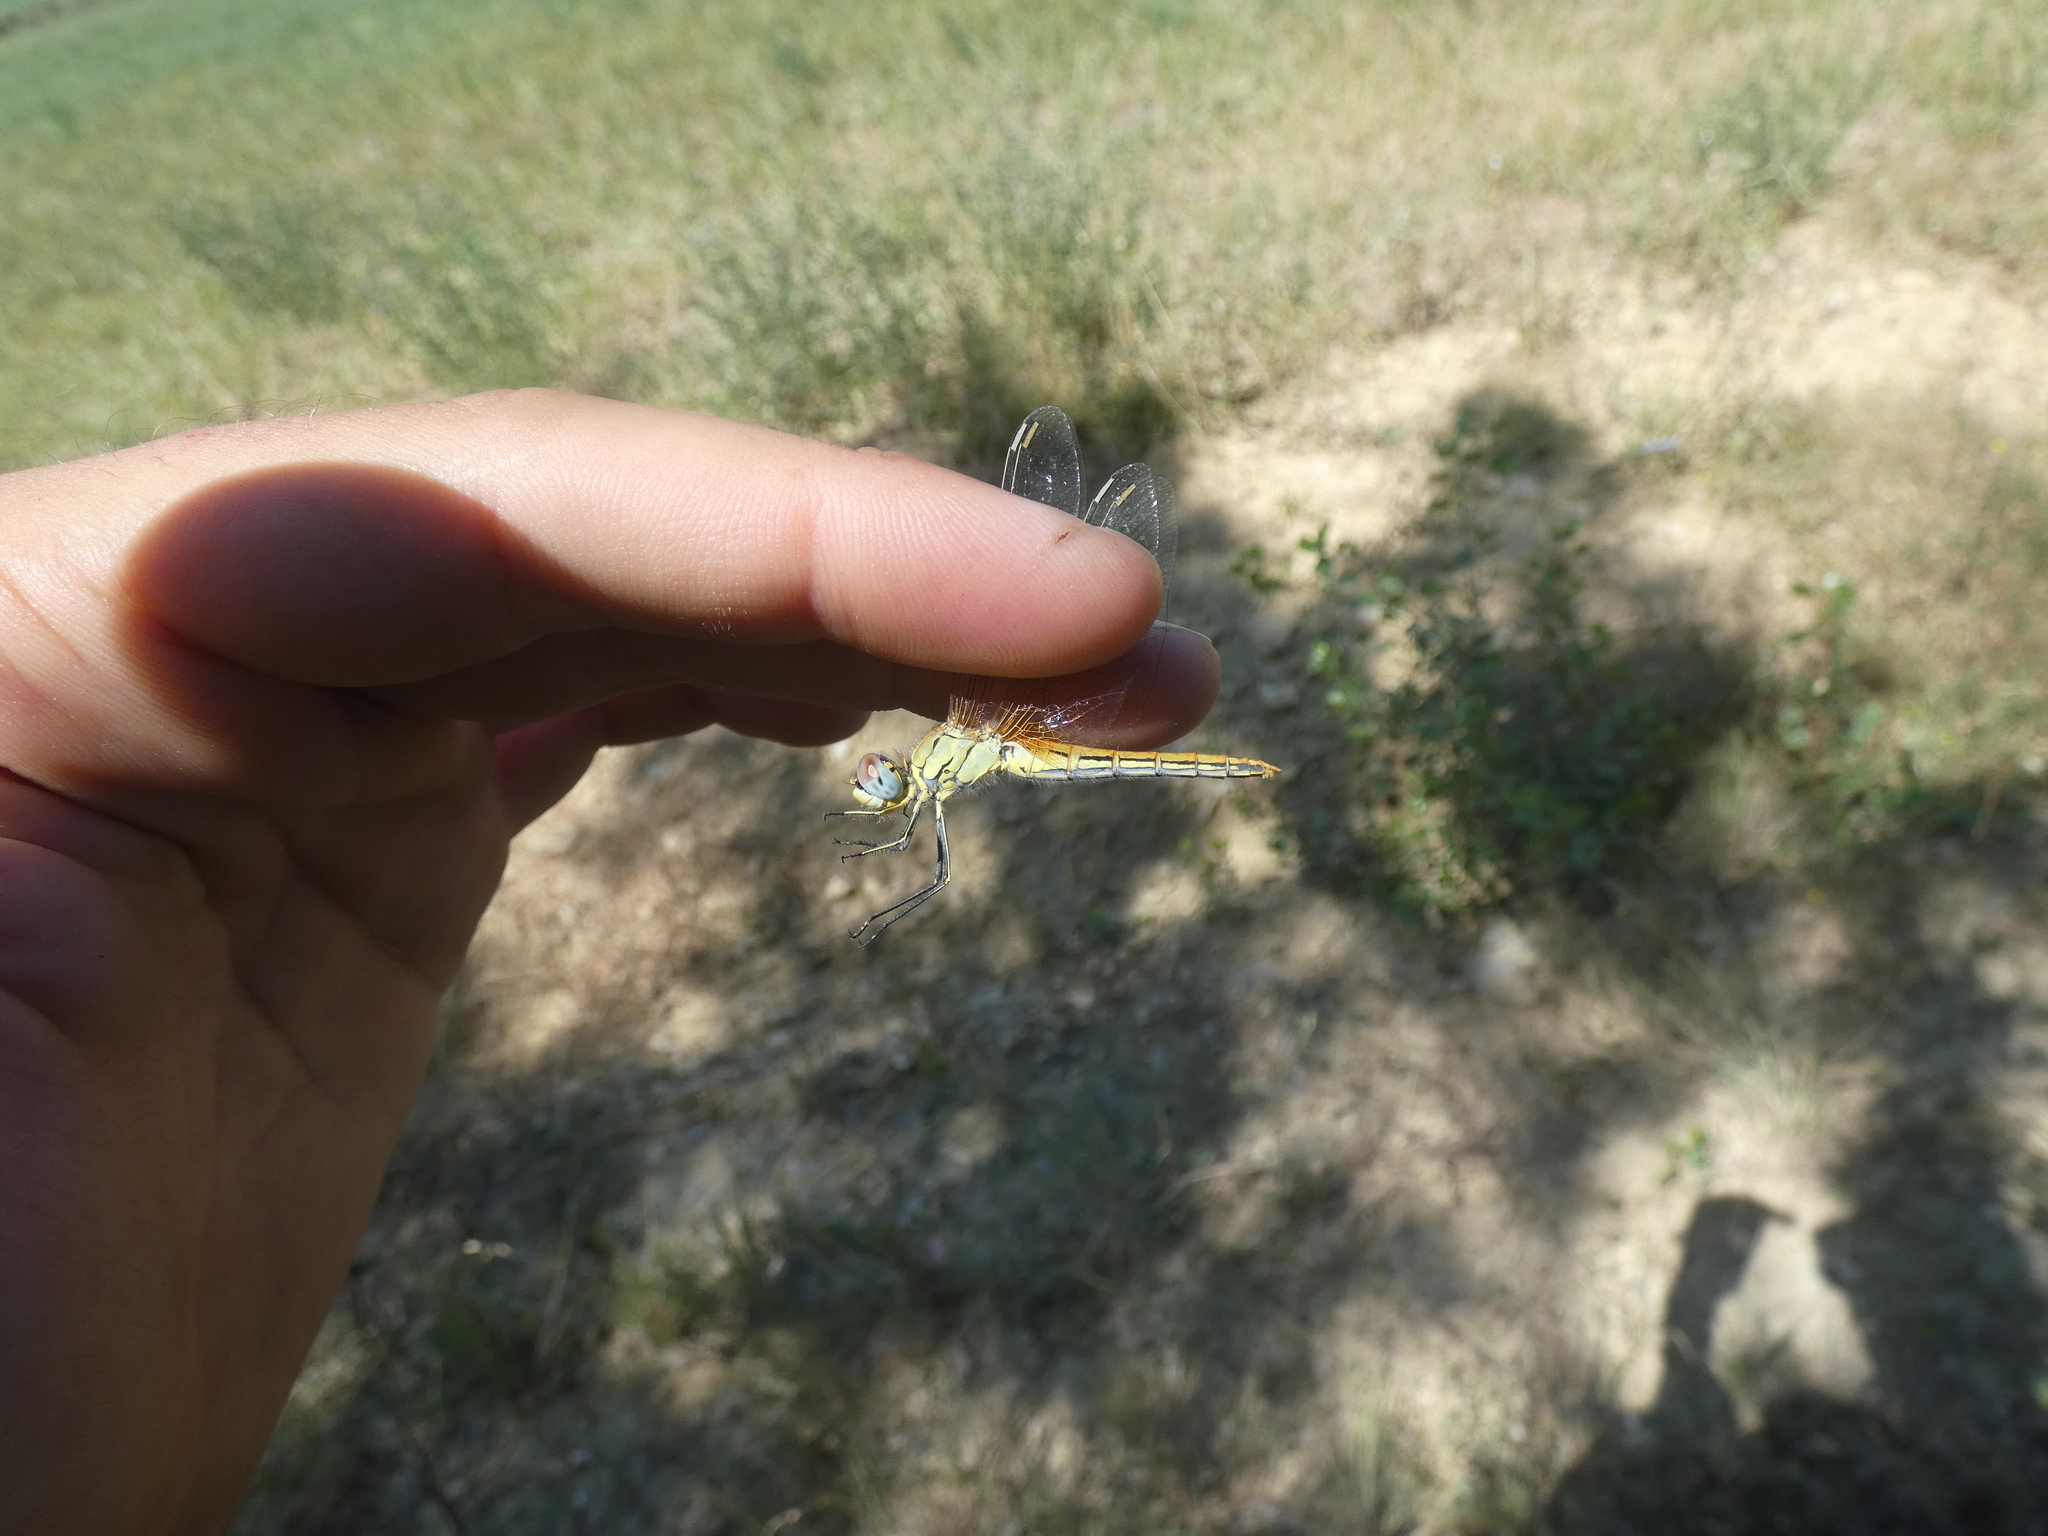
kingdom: Animalia
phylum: Arthropoda
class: Insecta
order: Odonata
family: Libellulidae
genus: Sympetrum
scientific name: Sympetrum fonscolombii
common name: Red-veined darter
